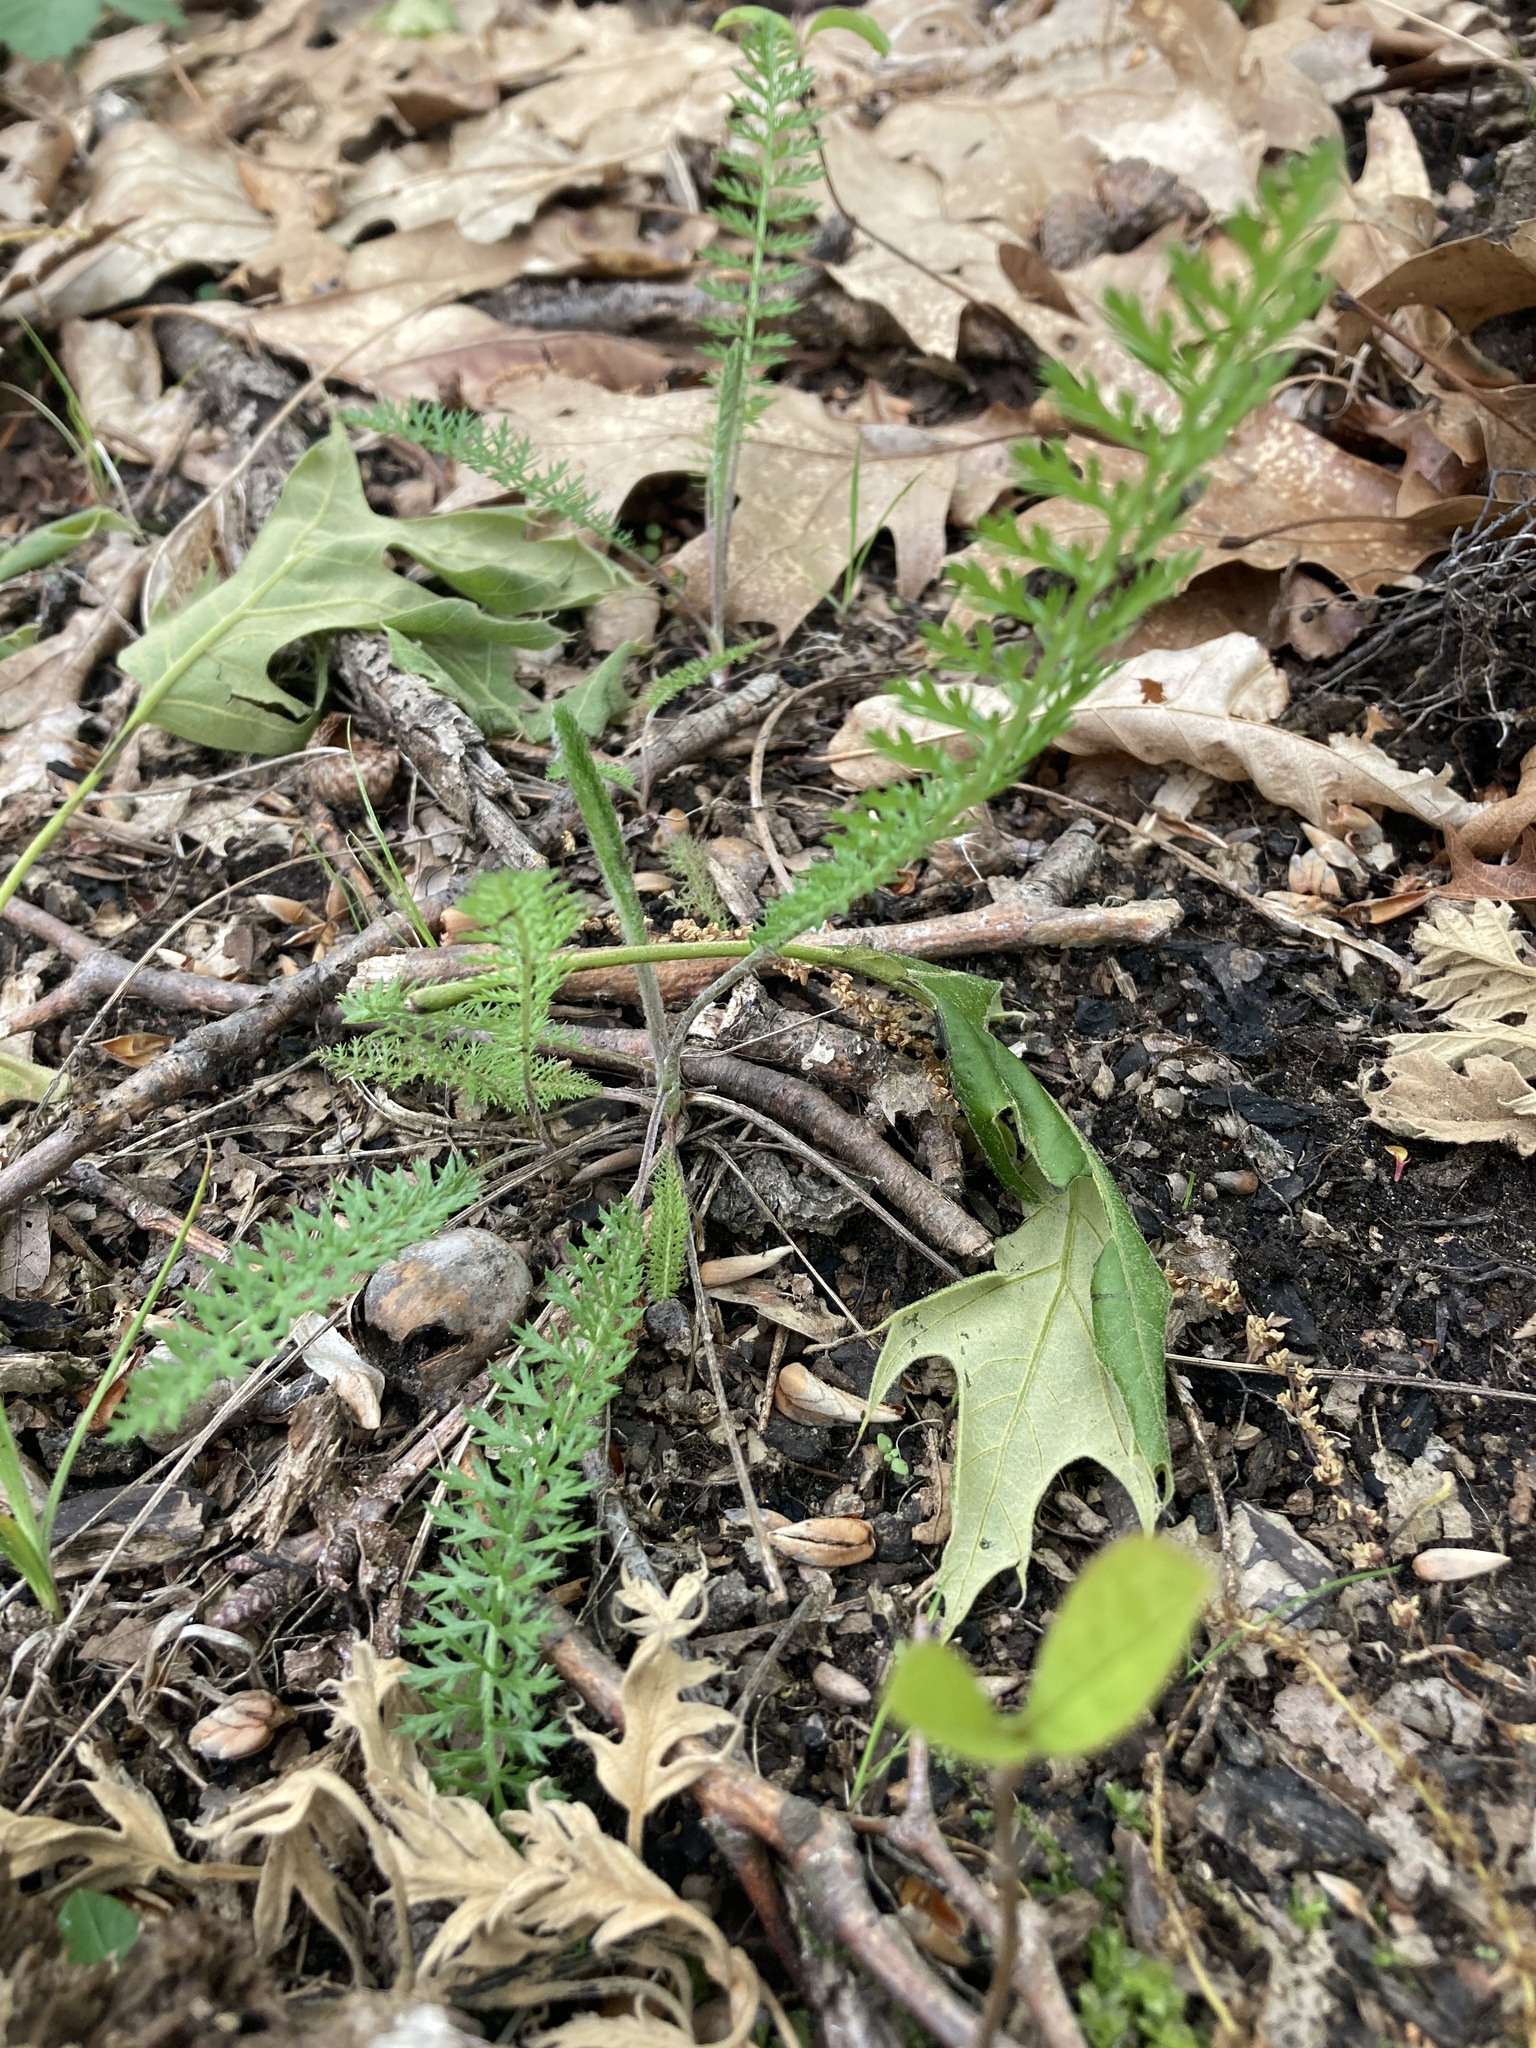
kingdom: Plantae
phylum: Tracheophyta
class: Magnoliopsida
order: Asterales
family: Asteraceae
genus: Achillea
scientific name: Achillea millefolium
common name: Yarrow
